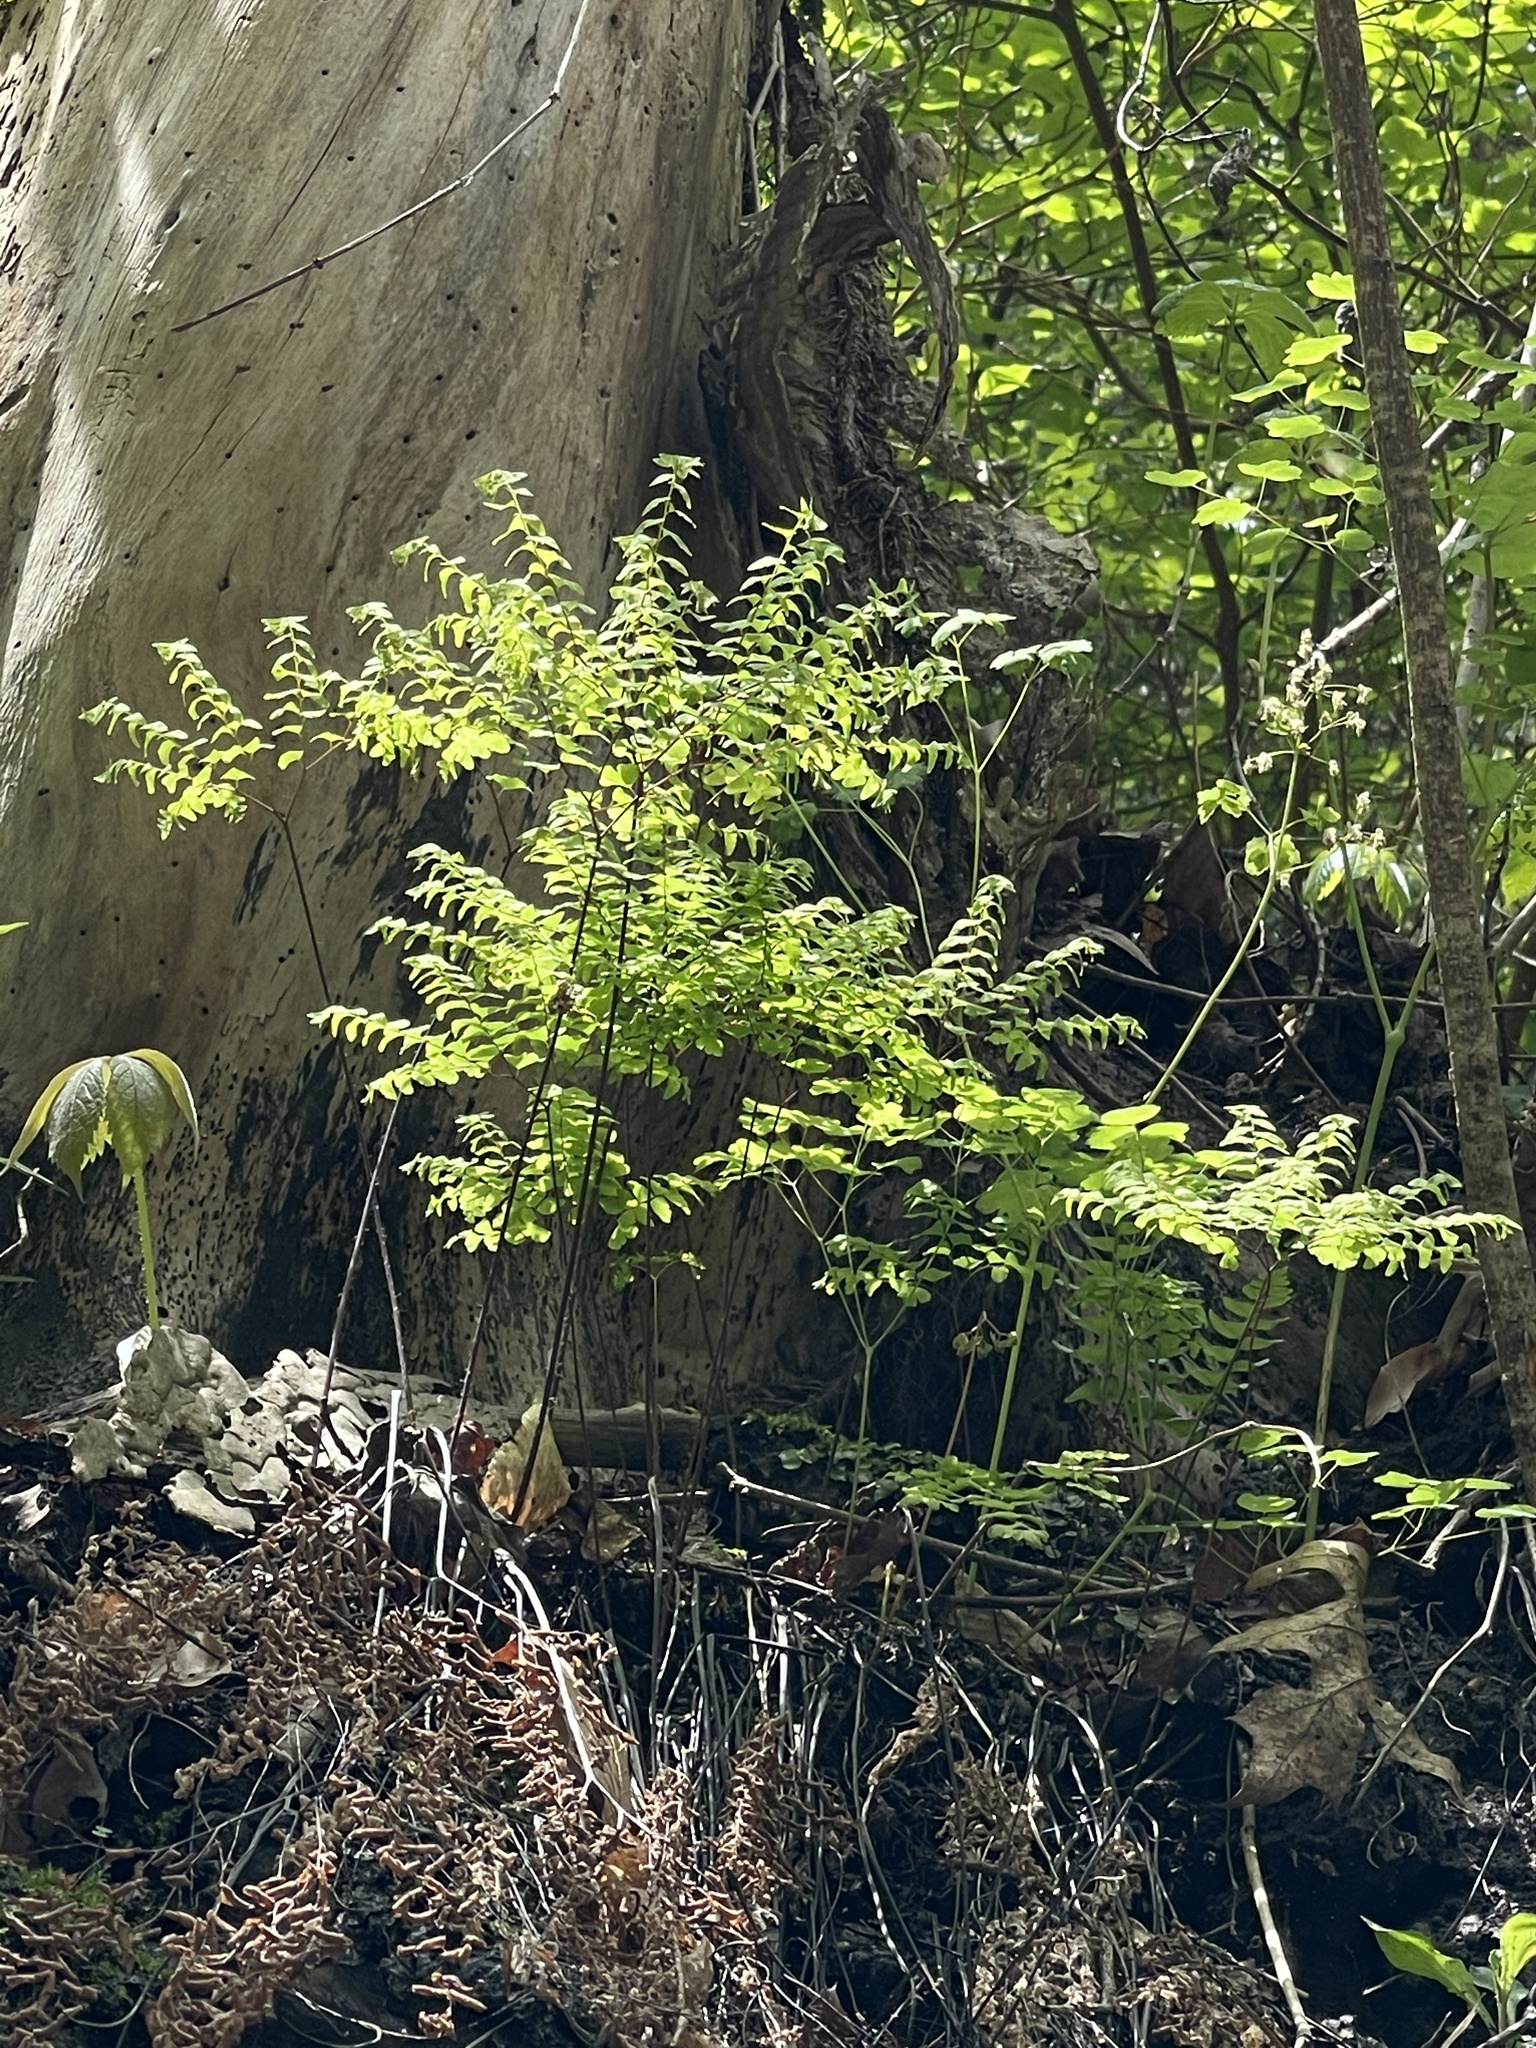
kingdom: Plantae
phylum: Tracheophyta
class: Polypodiopsida
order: Polypodiales
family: Pteridaceae
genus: Adiantum
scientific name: Adiantum pedatum
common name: Five-finger fern
